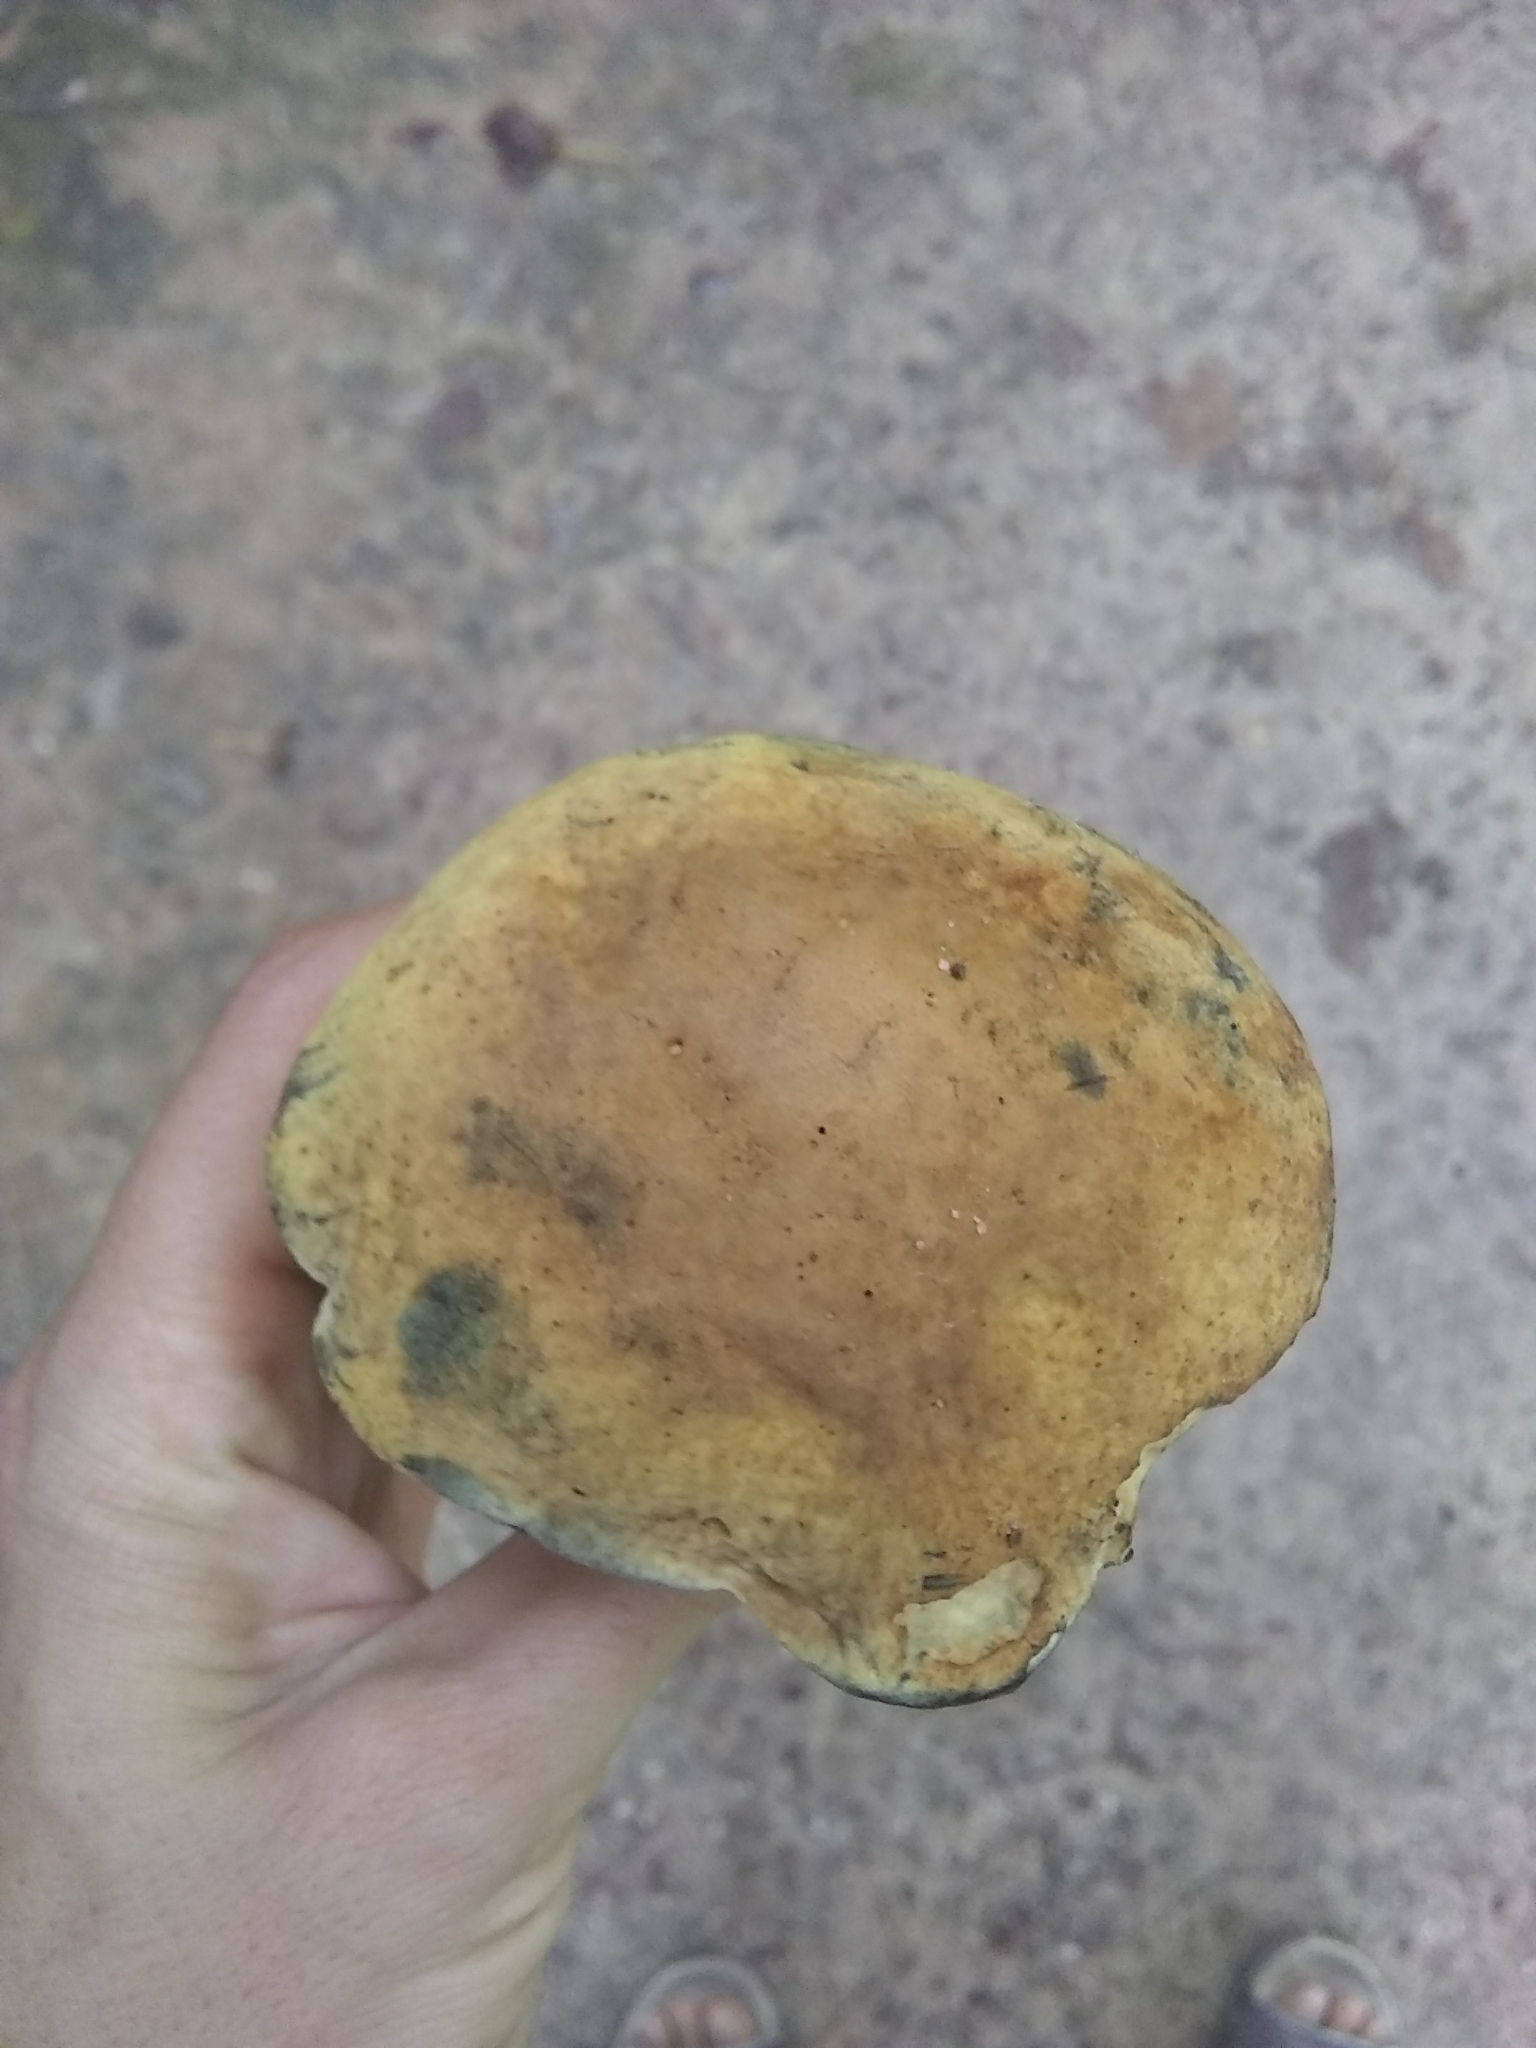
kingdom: Fungi
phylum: Basidiomycota
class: Agaricomycetes
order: Boletales
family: Boletaceae
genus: Boletus
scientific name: Boletus vermiculosoides
